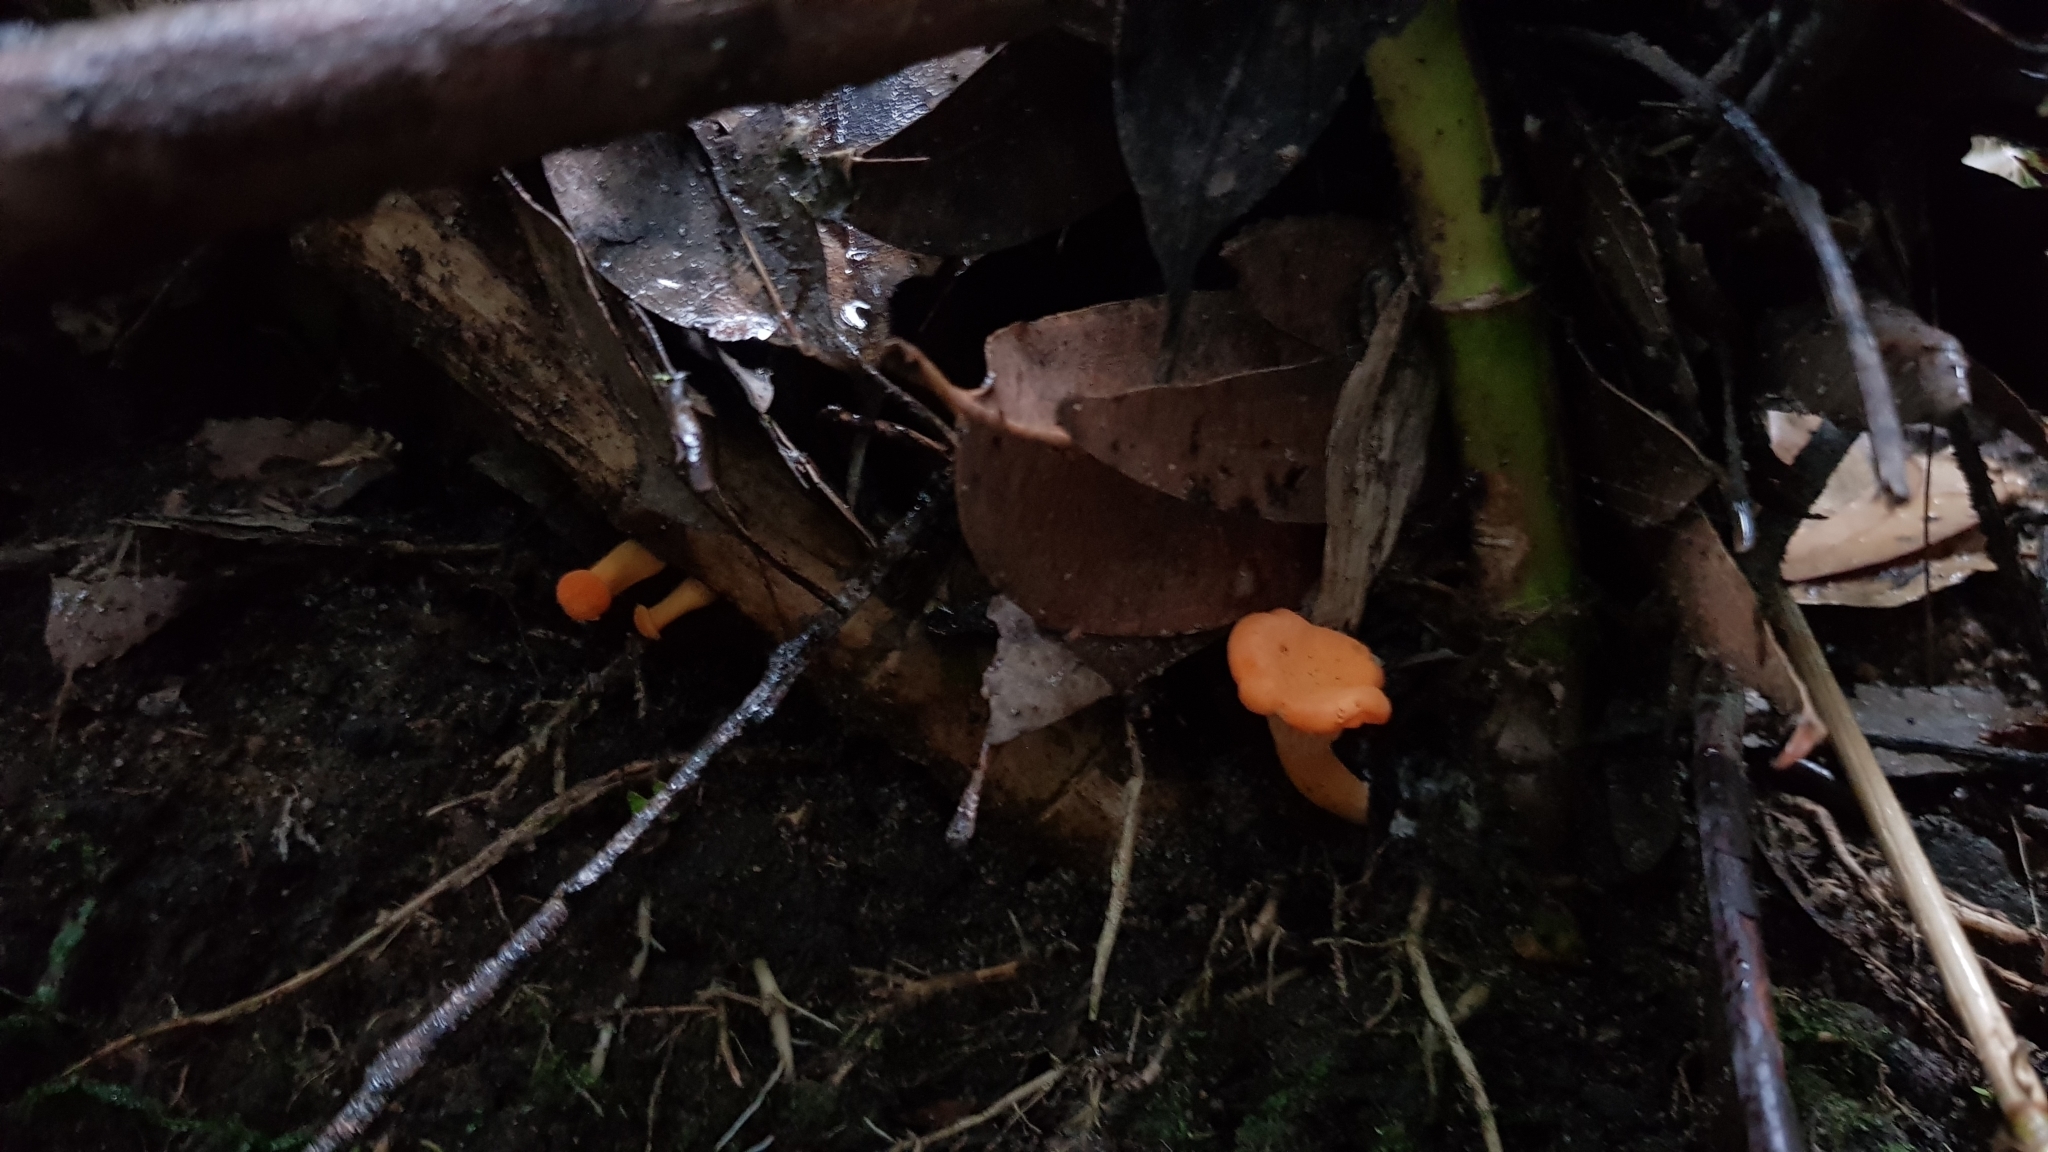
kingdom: Fungi
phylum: Basidiomycota
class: Agaricomycetes
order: Cantharellales
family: Hydnaceae
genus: Cantharellus
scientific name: Cantharellus
